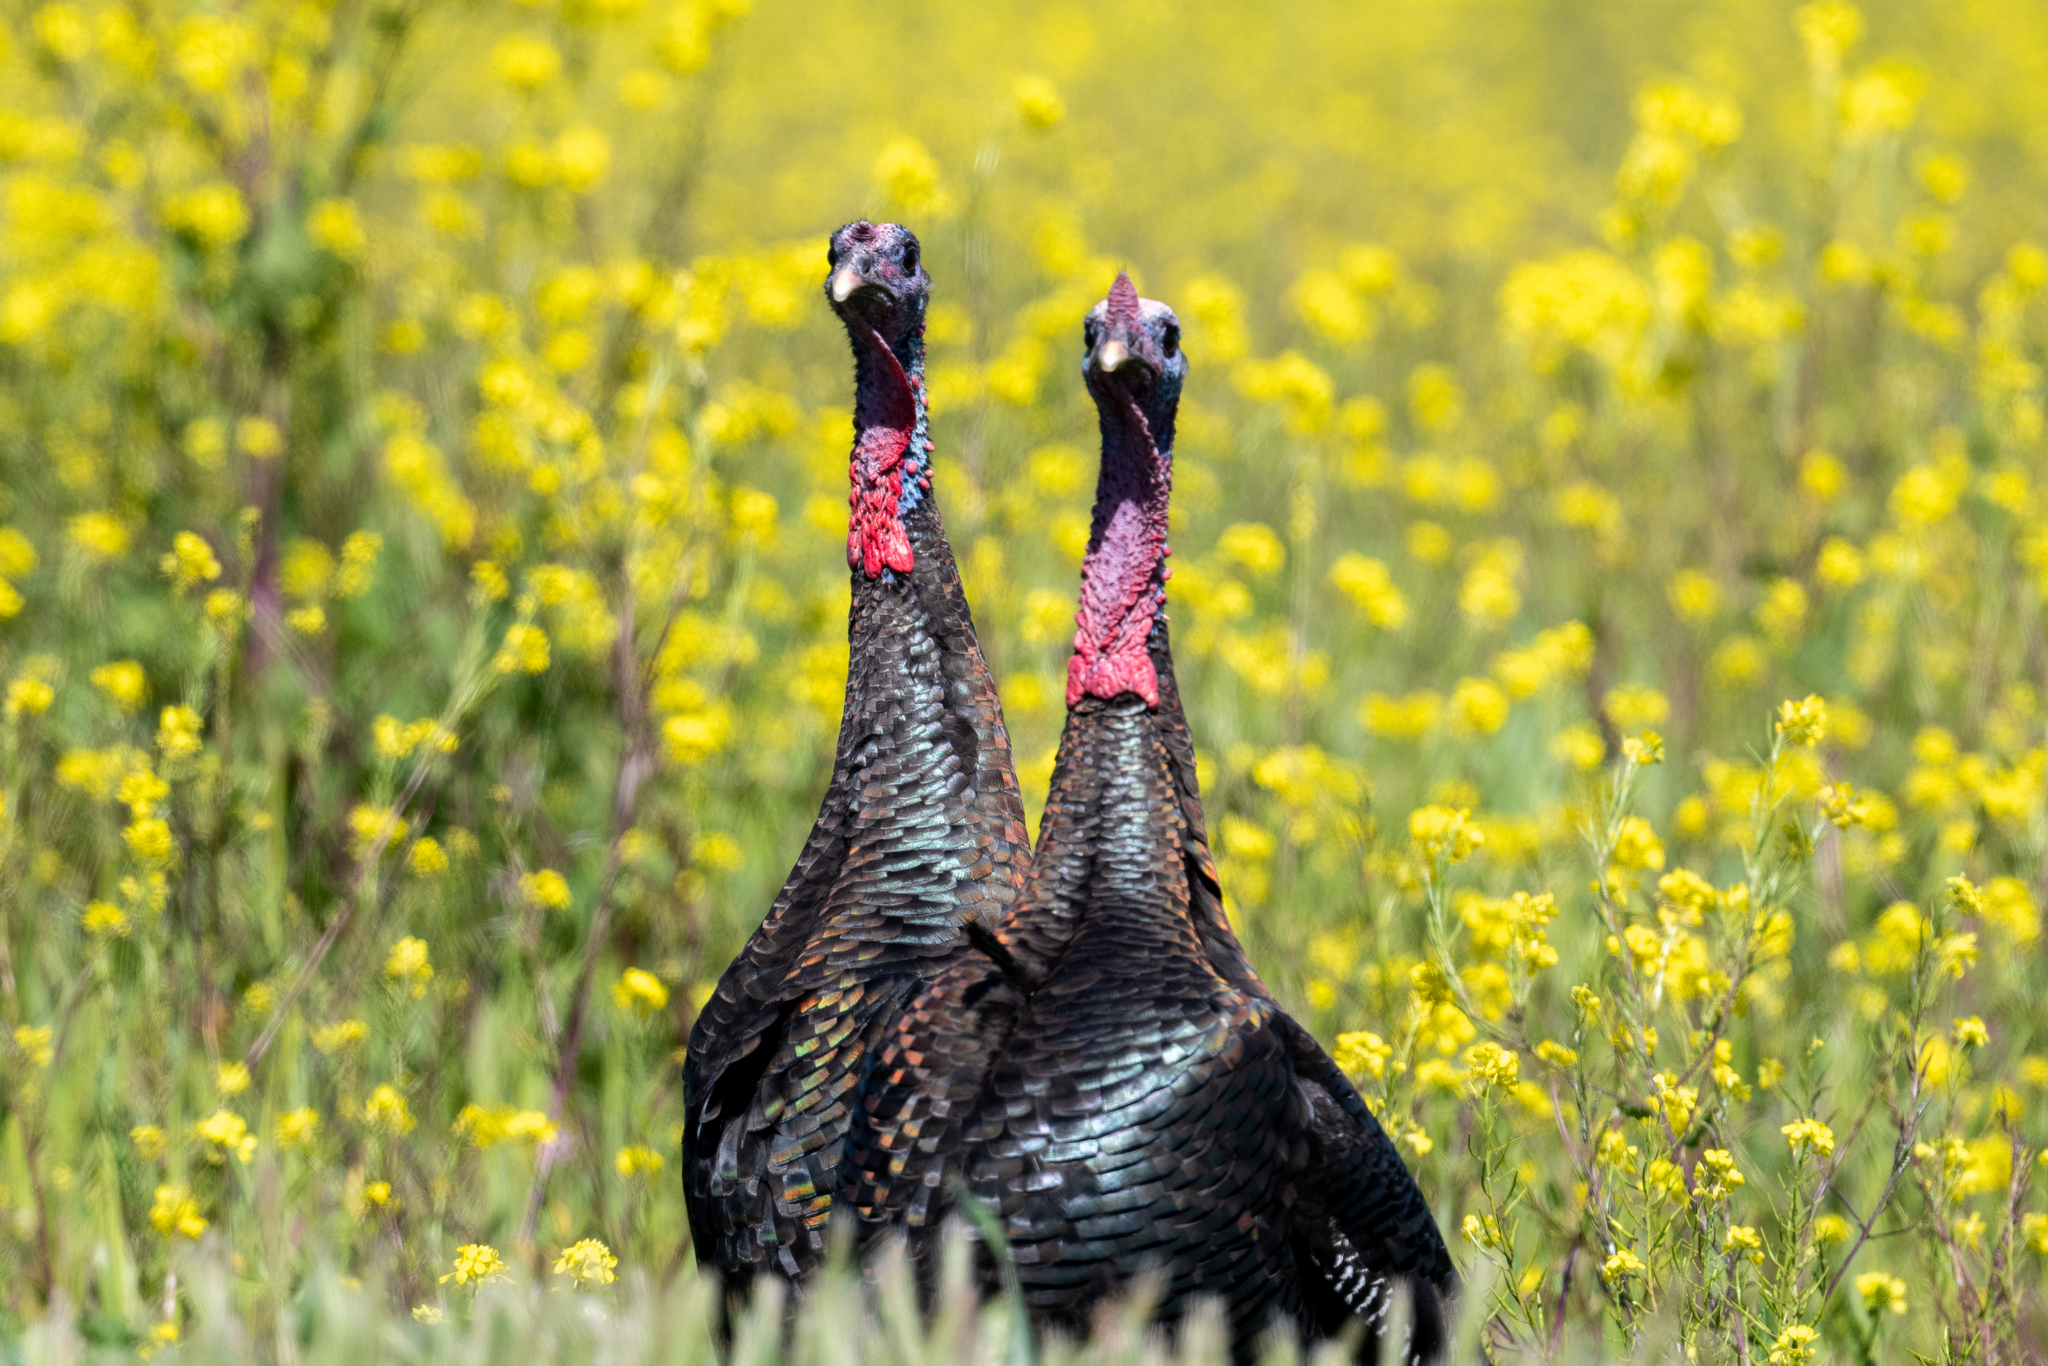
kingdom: Animalia
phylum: Chordata
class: Aves
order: Galliformes
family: Phasianidae
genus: Meleagris
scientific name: Meleagris gallopavo
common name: Wild turkey
